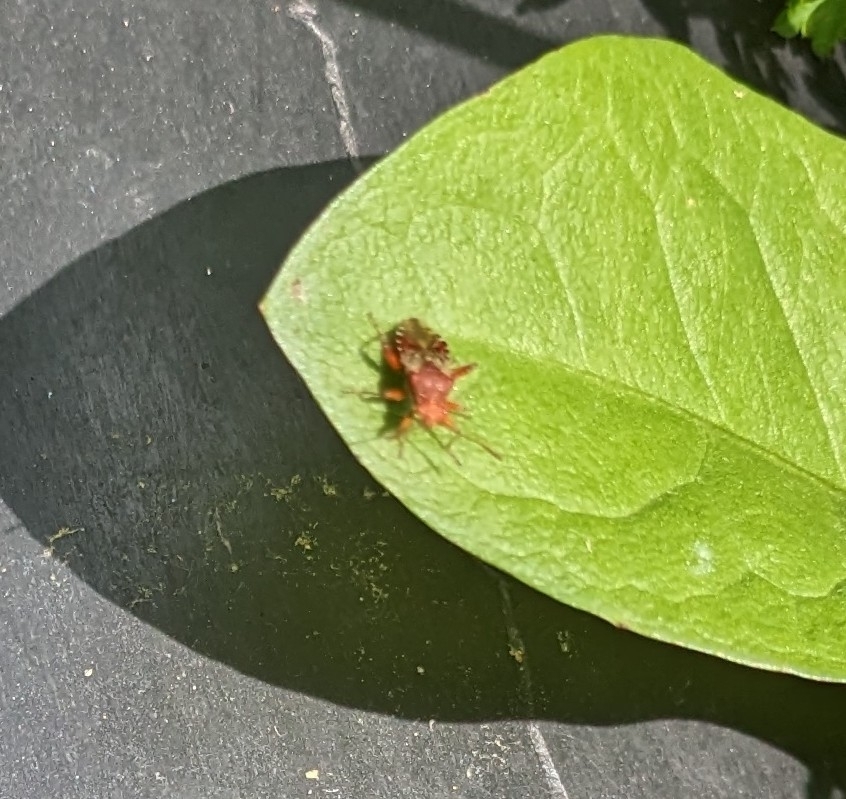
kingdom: Animalia
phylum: Arthropoda
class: Insecta
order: Hemiptera
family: Rhopalidae
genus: Rhopalus
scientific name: Rhopalus subrufus
